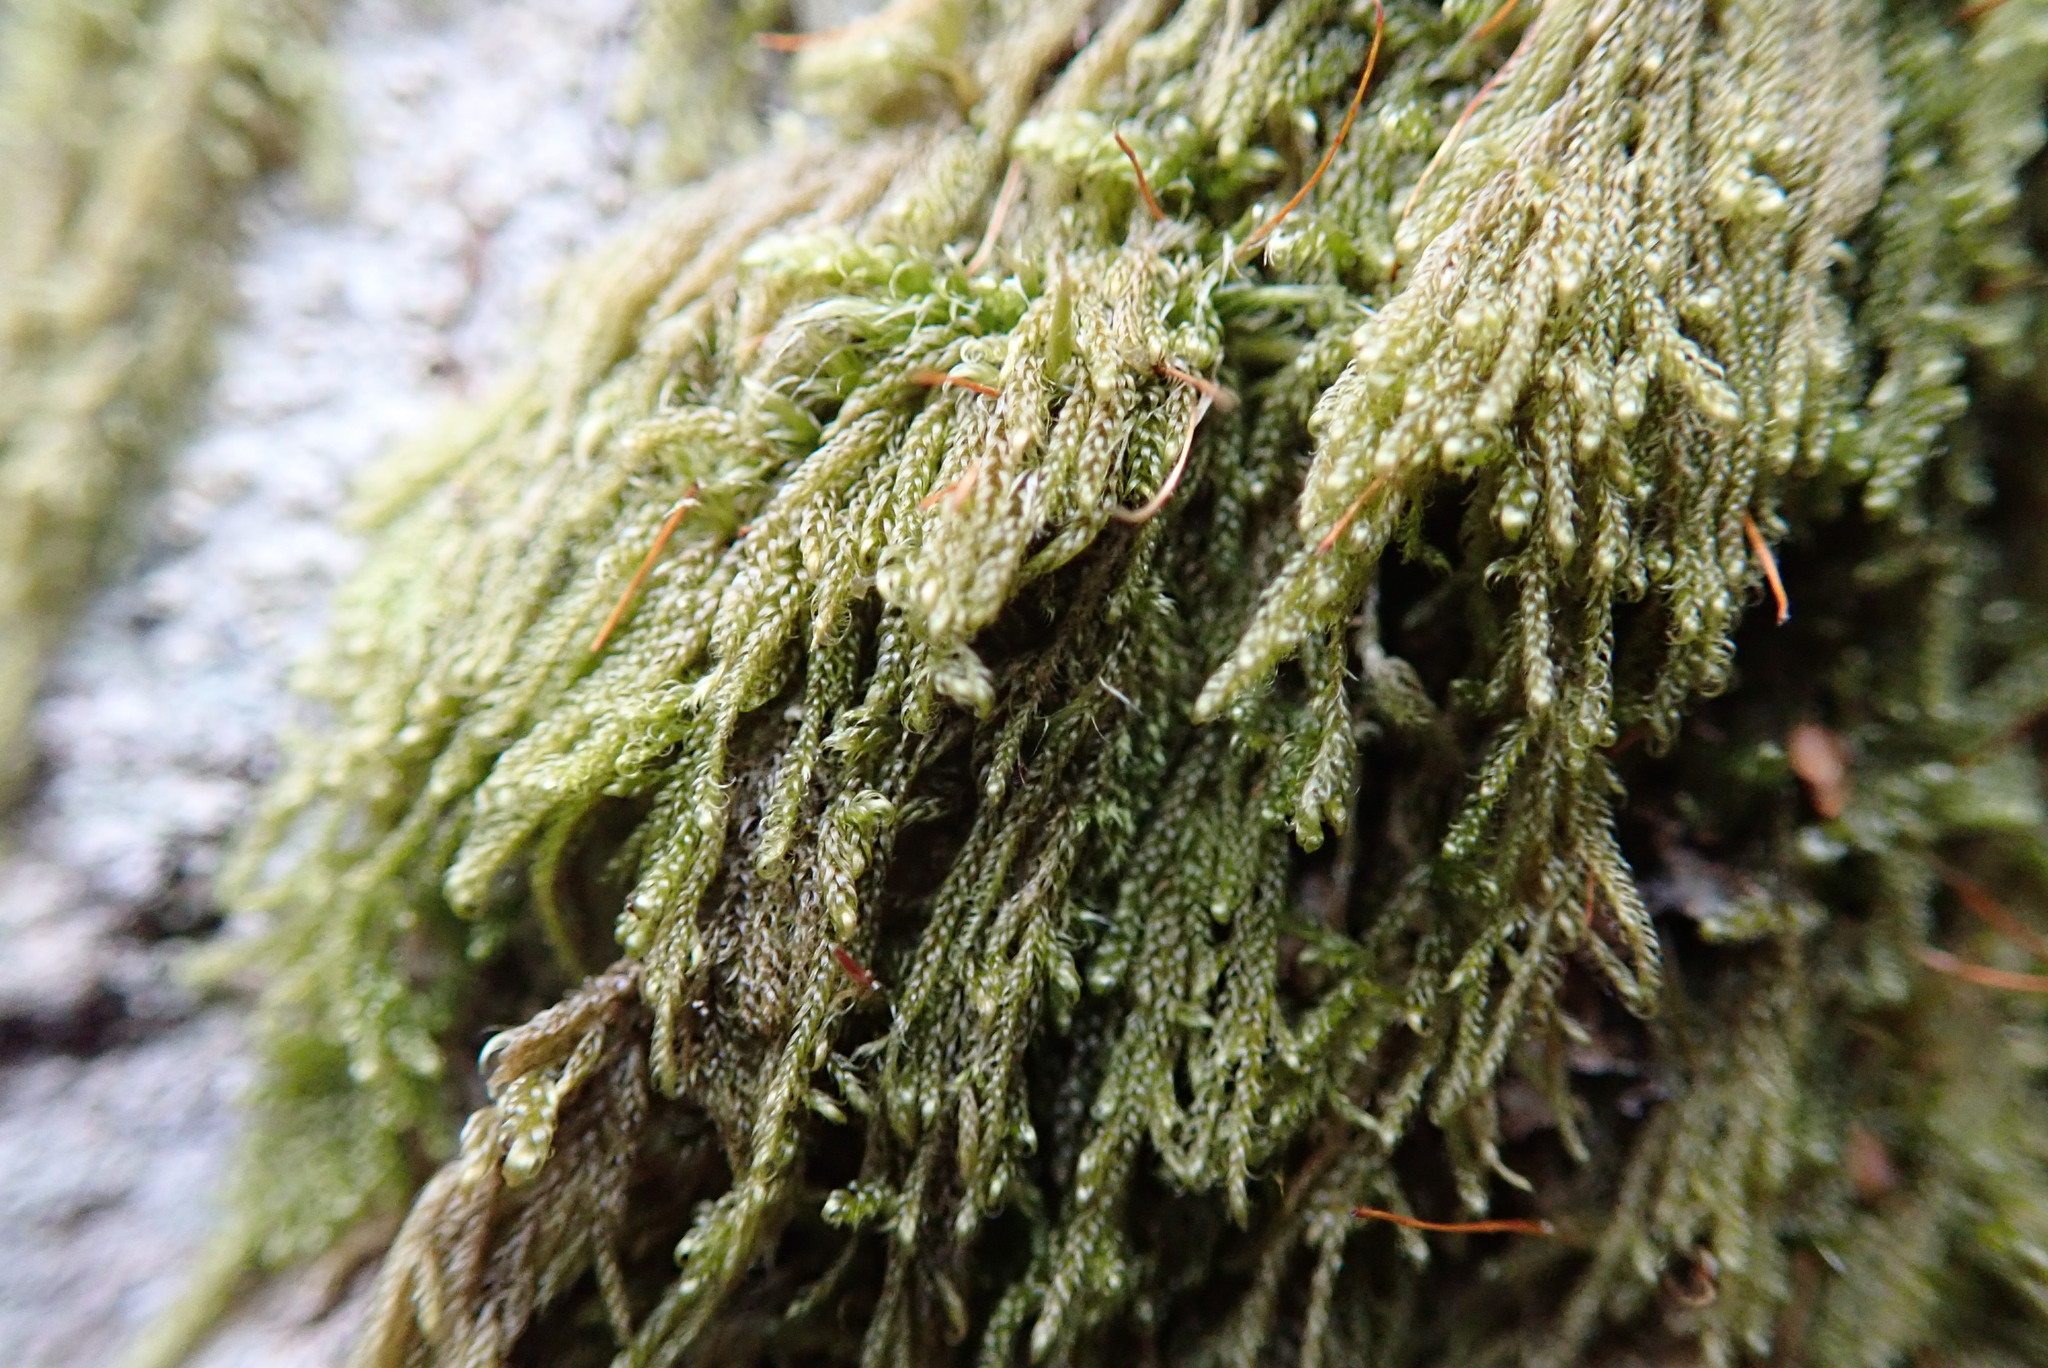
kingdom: Plantae
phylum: Bryophyta
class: Bryopsida
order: Hypnales
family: Pylaisiadelphaceae
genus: Trochophyllohypnum
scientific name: Trochophyllohypnum circinale
